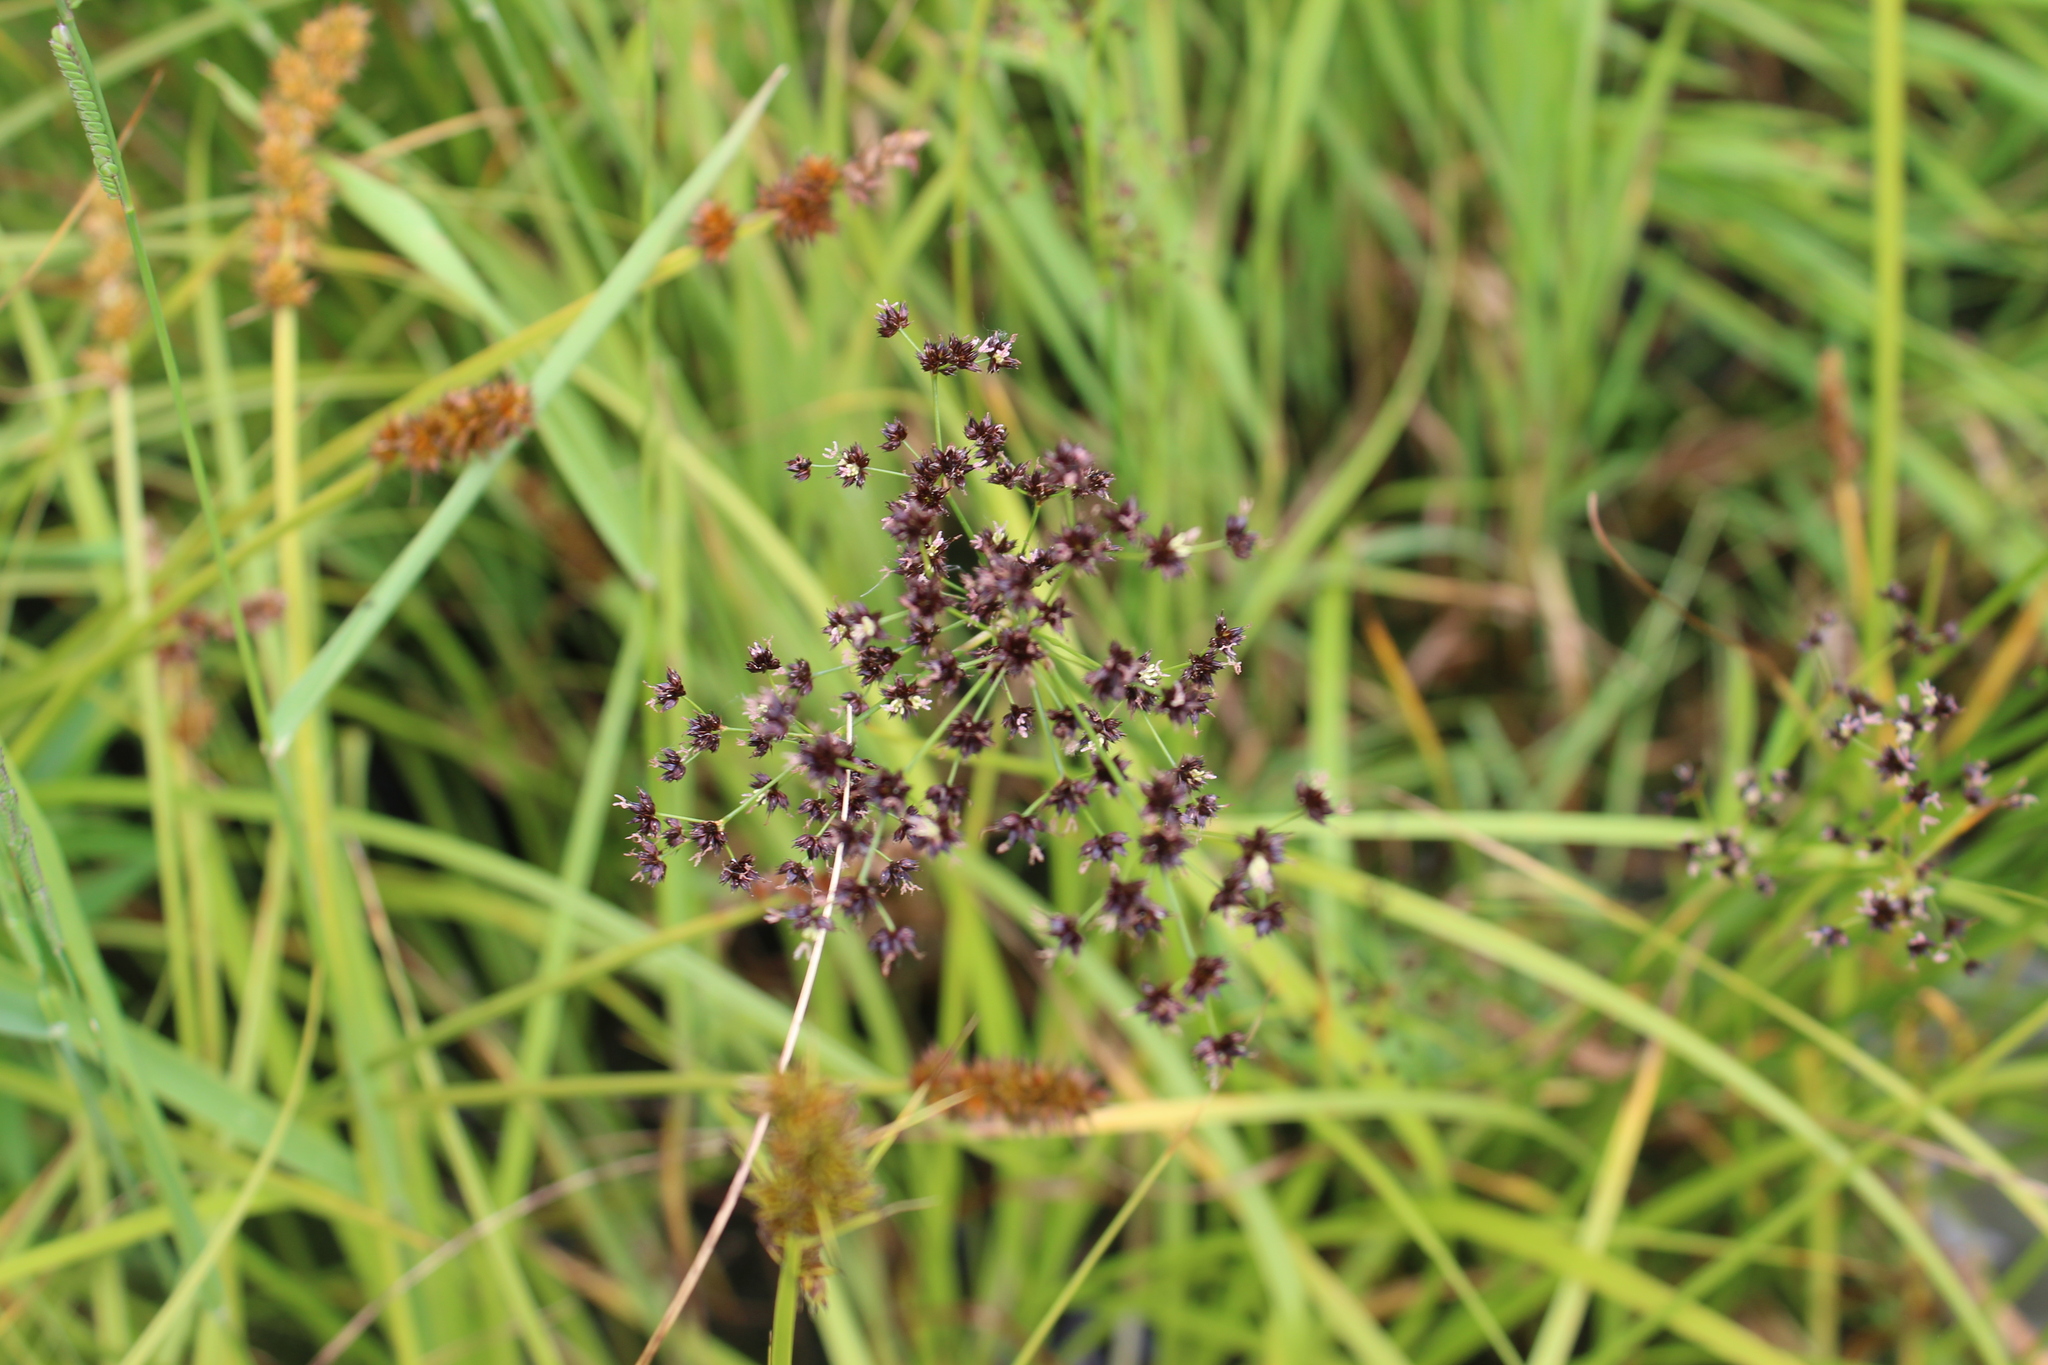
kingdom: Plantae
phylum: Tracheophyta
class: Liliopsida
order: Poales
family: Juncaceae
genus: Juncus
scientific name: Juncus atratus
